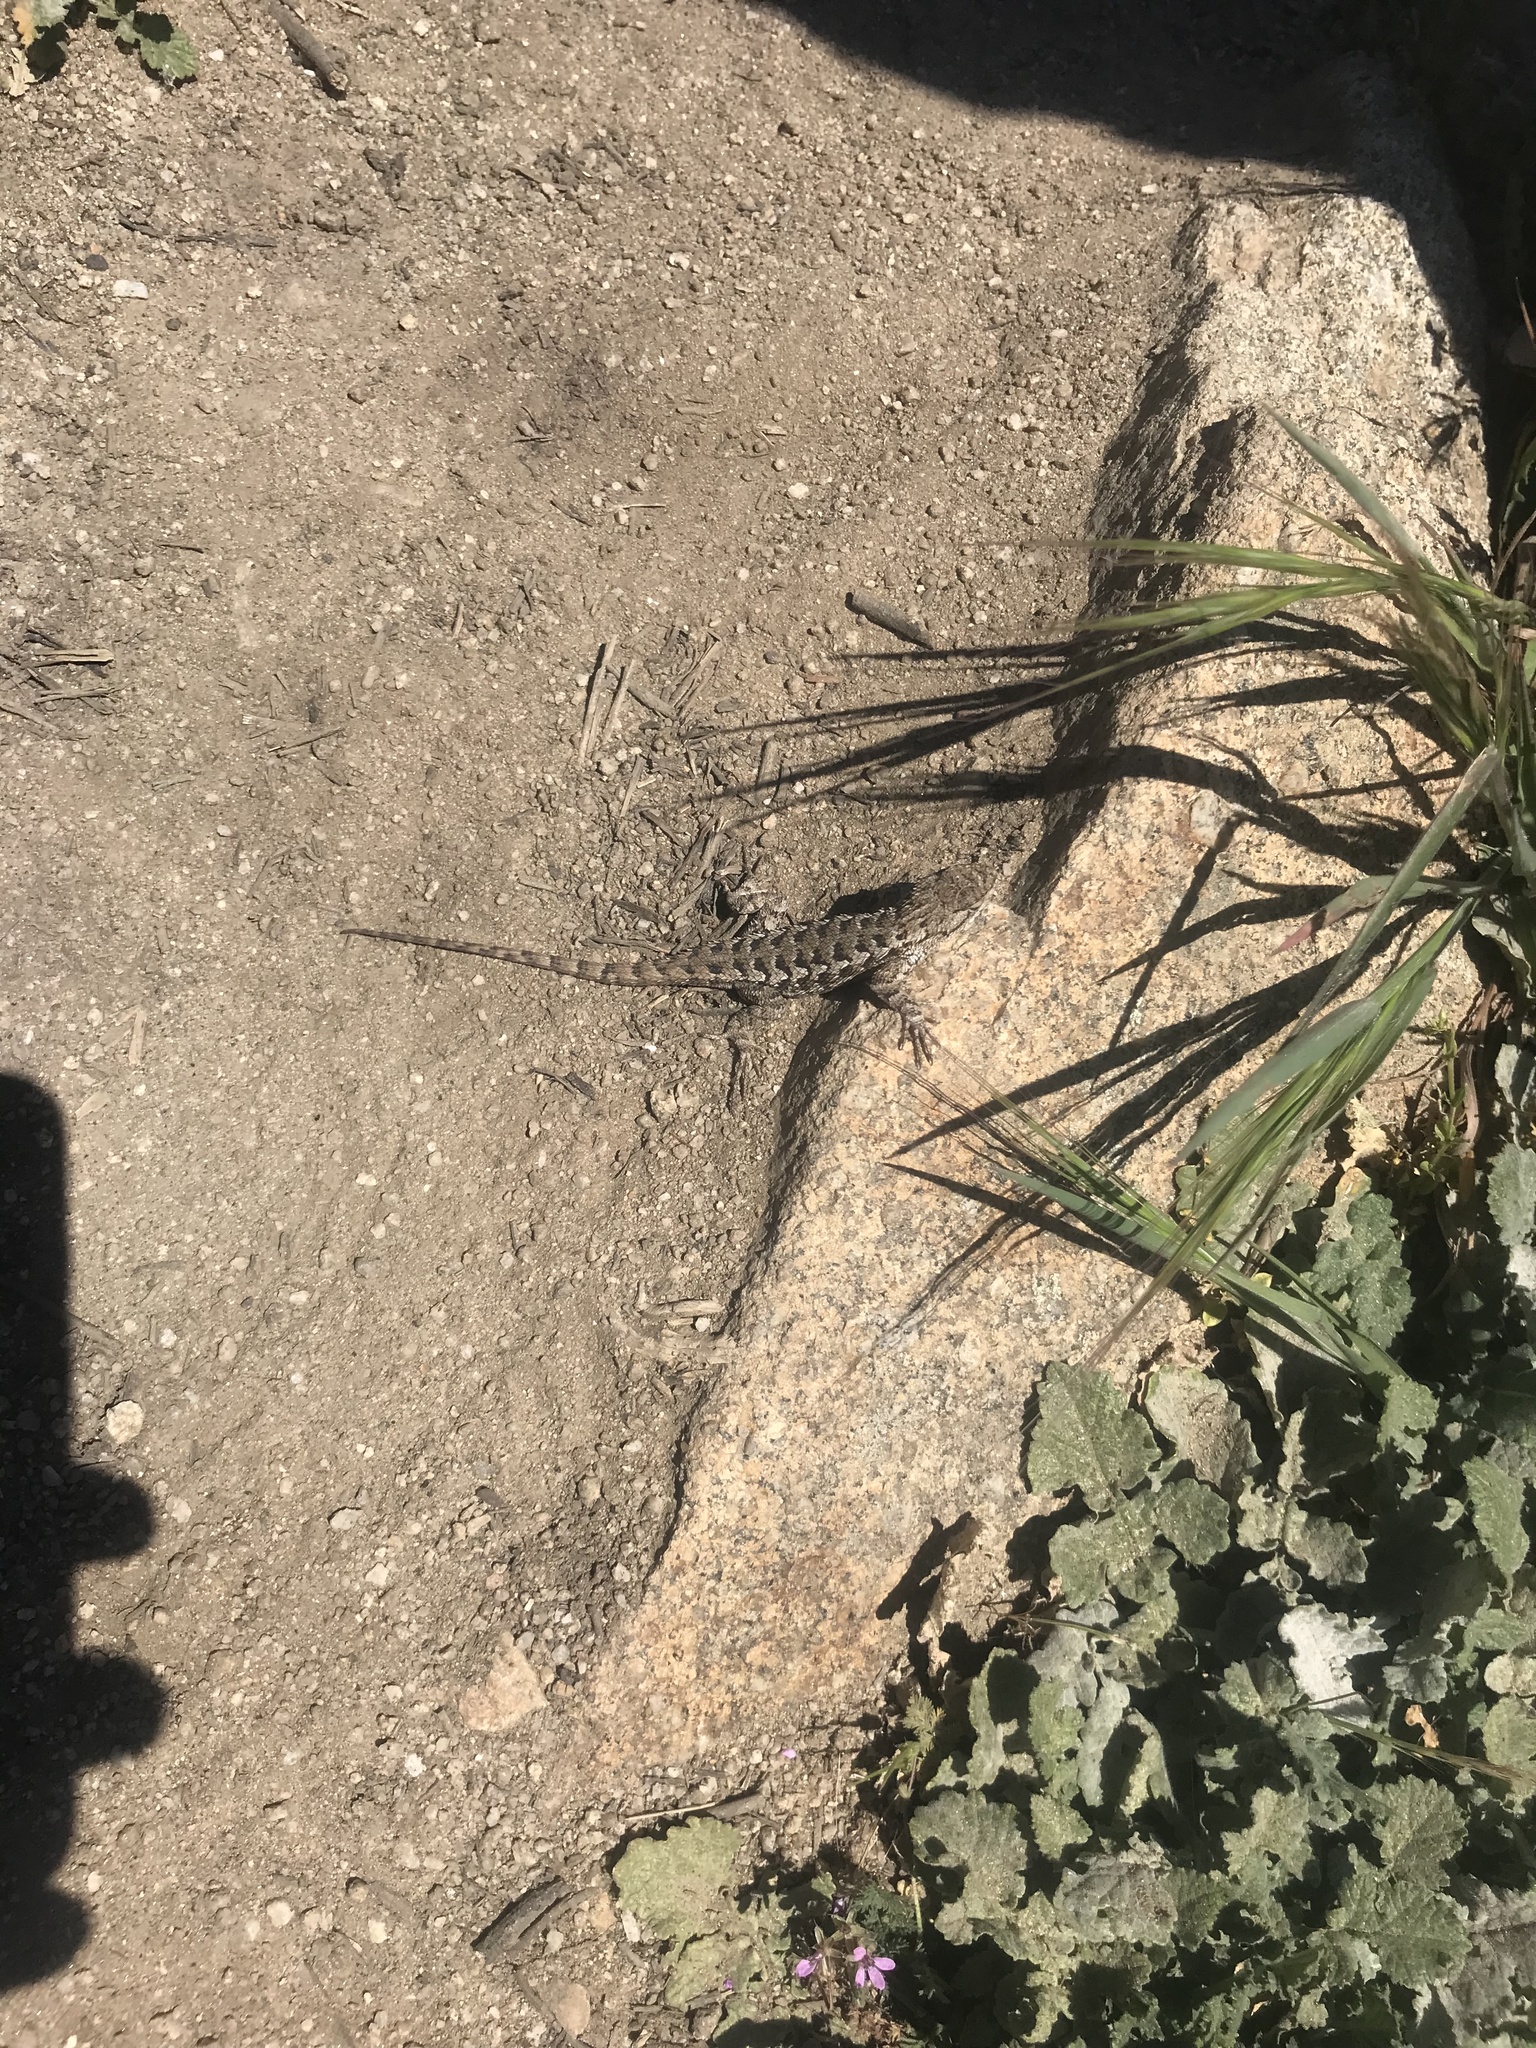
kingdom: Animalia
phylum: Chordata
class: Squamata
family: Phrynosomatidae
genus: Sceloporus
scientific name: Sceloporus occidentalis
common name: Western fence lizard
